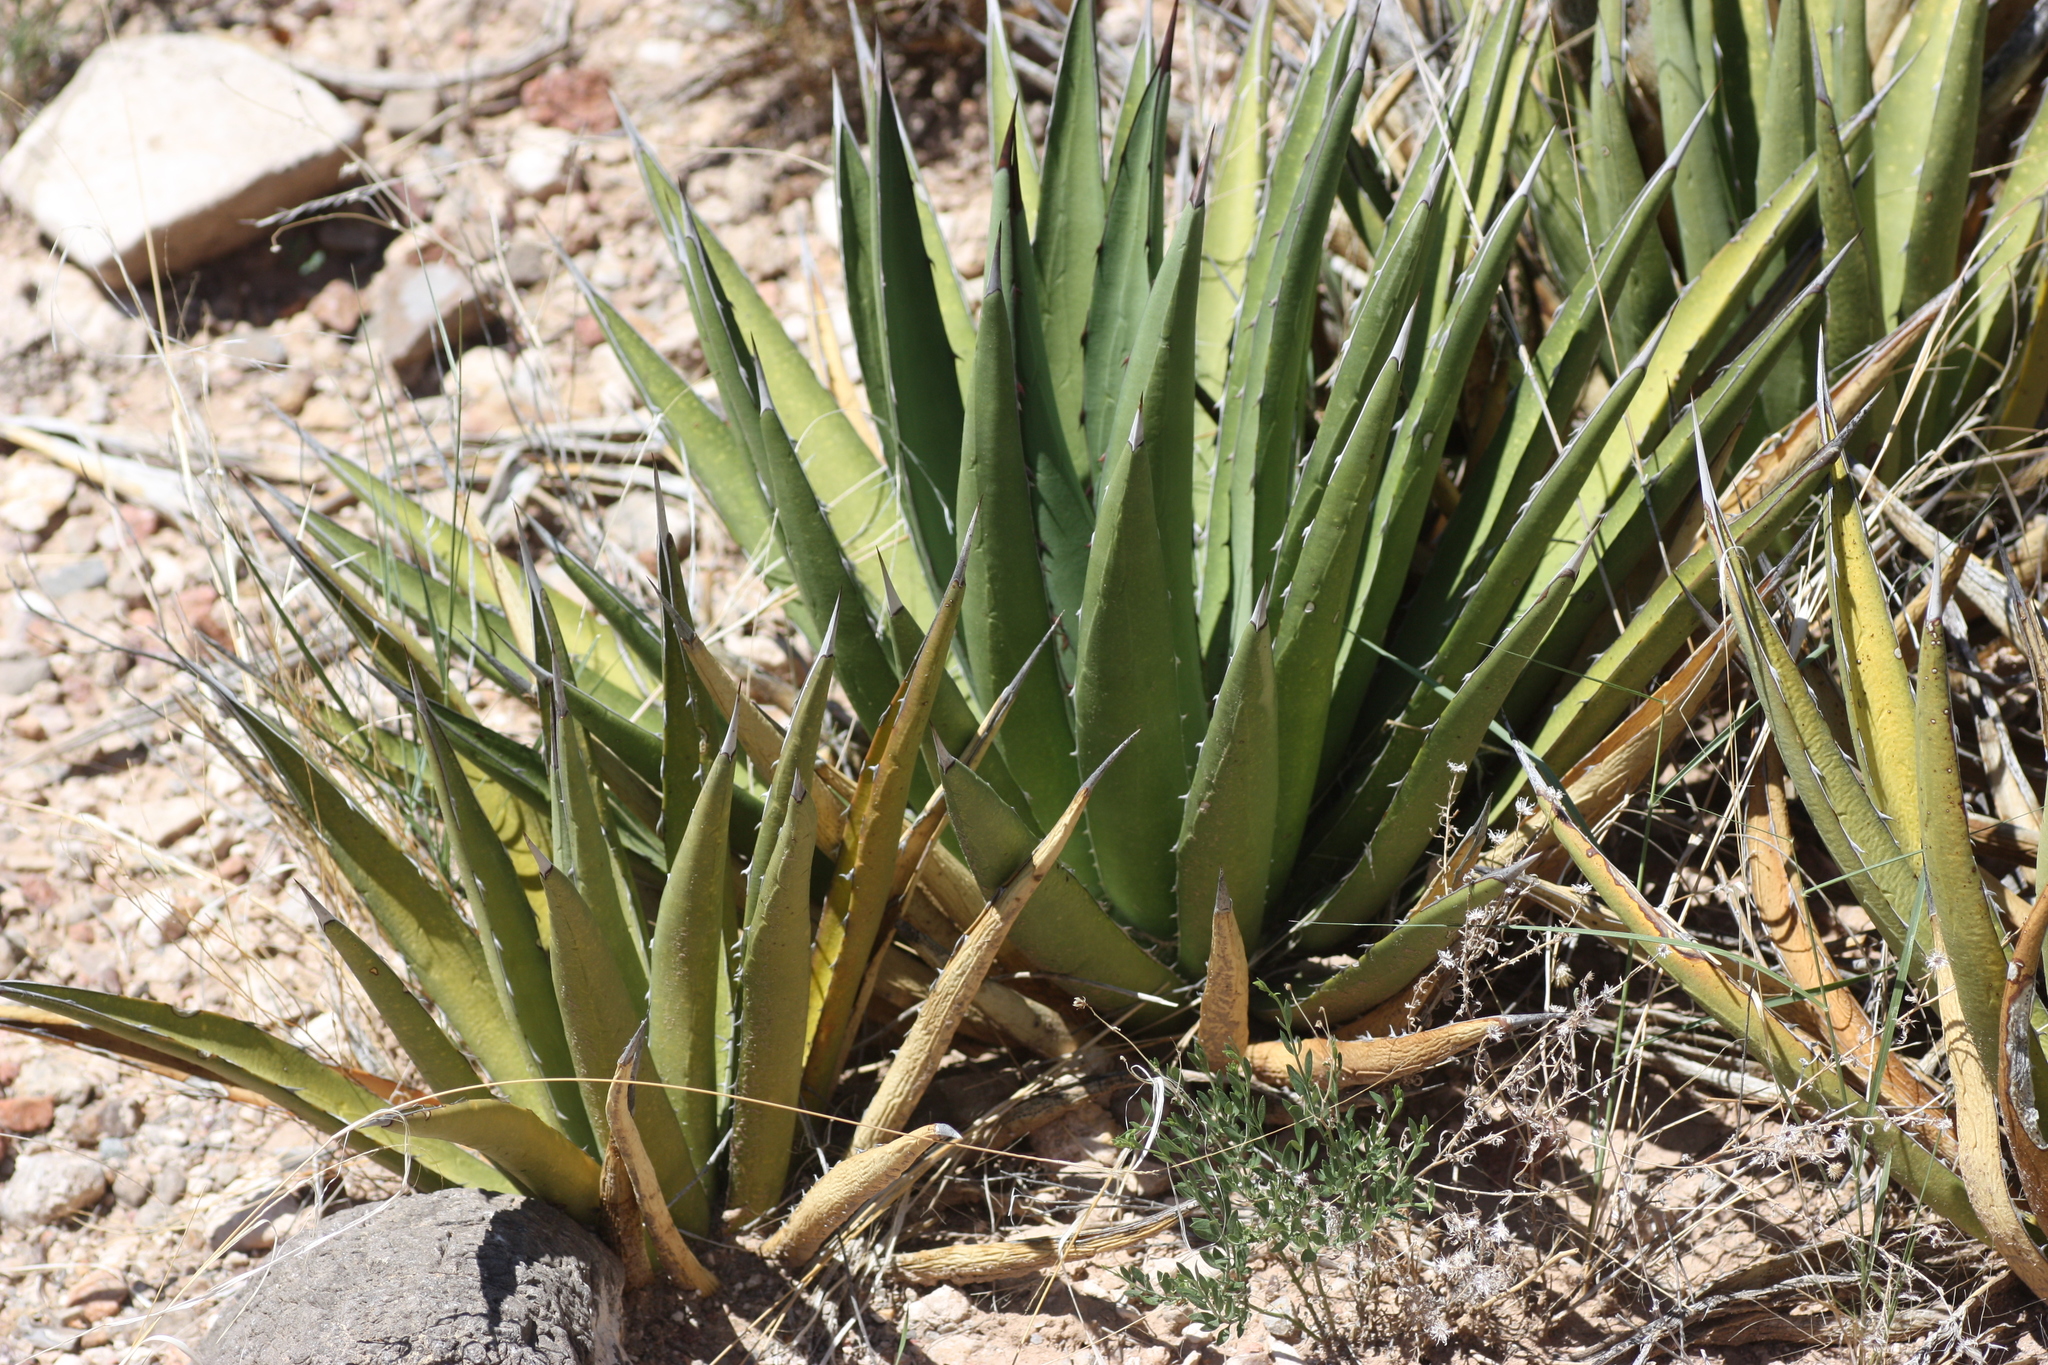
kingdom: Plantae
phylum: Tracheophyta
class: Liliopsida
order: Asparagales
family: Asparagaceae
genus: Agave
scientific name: Agave lechuguilla
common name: Lecheguilla agave
